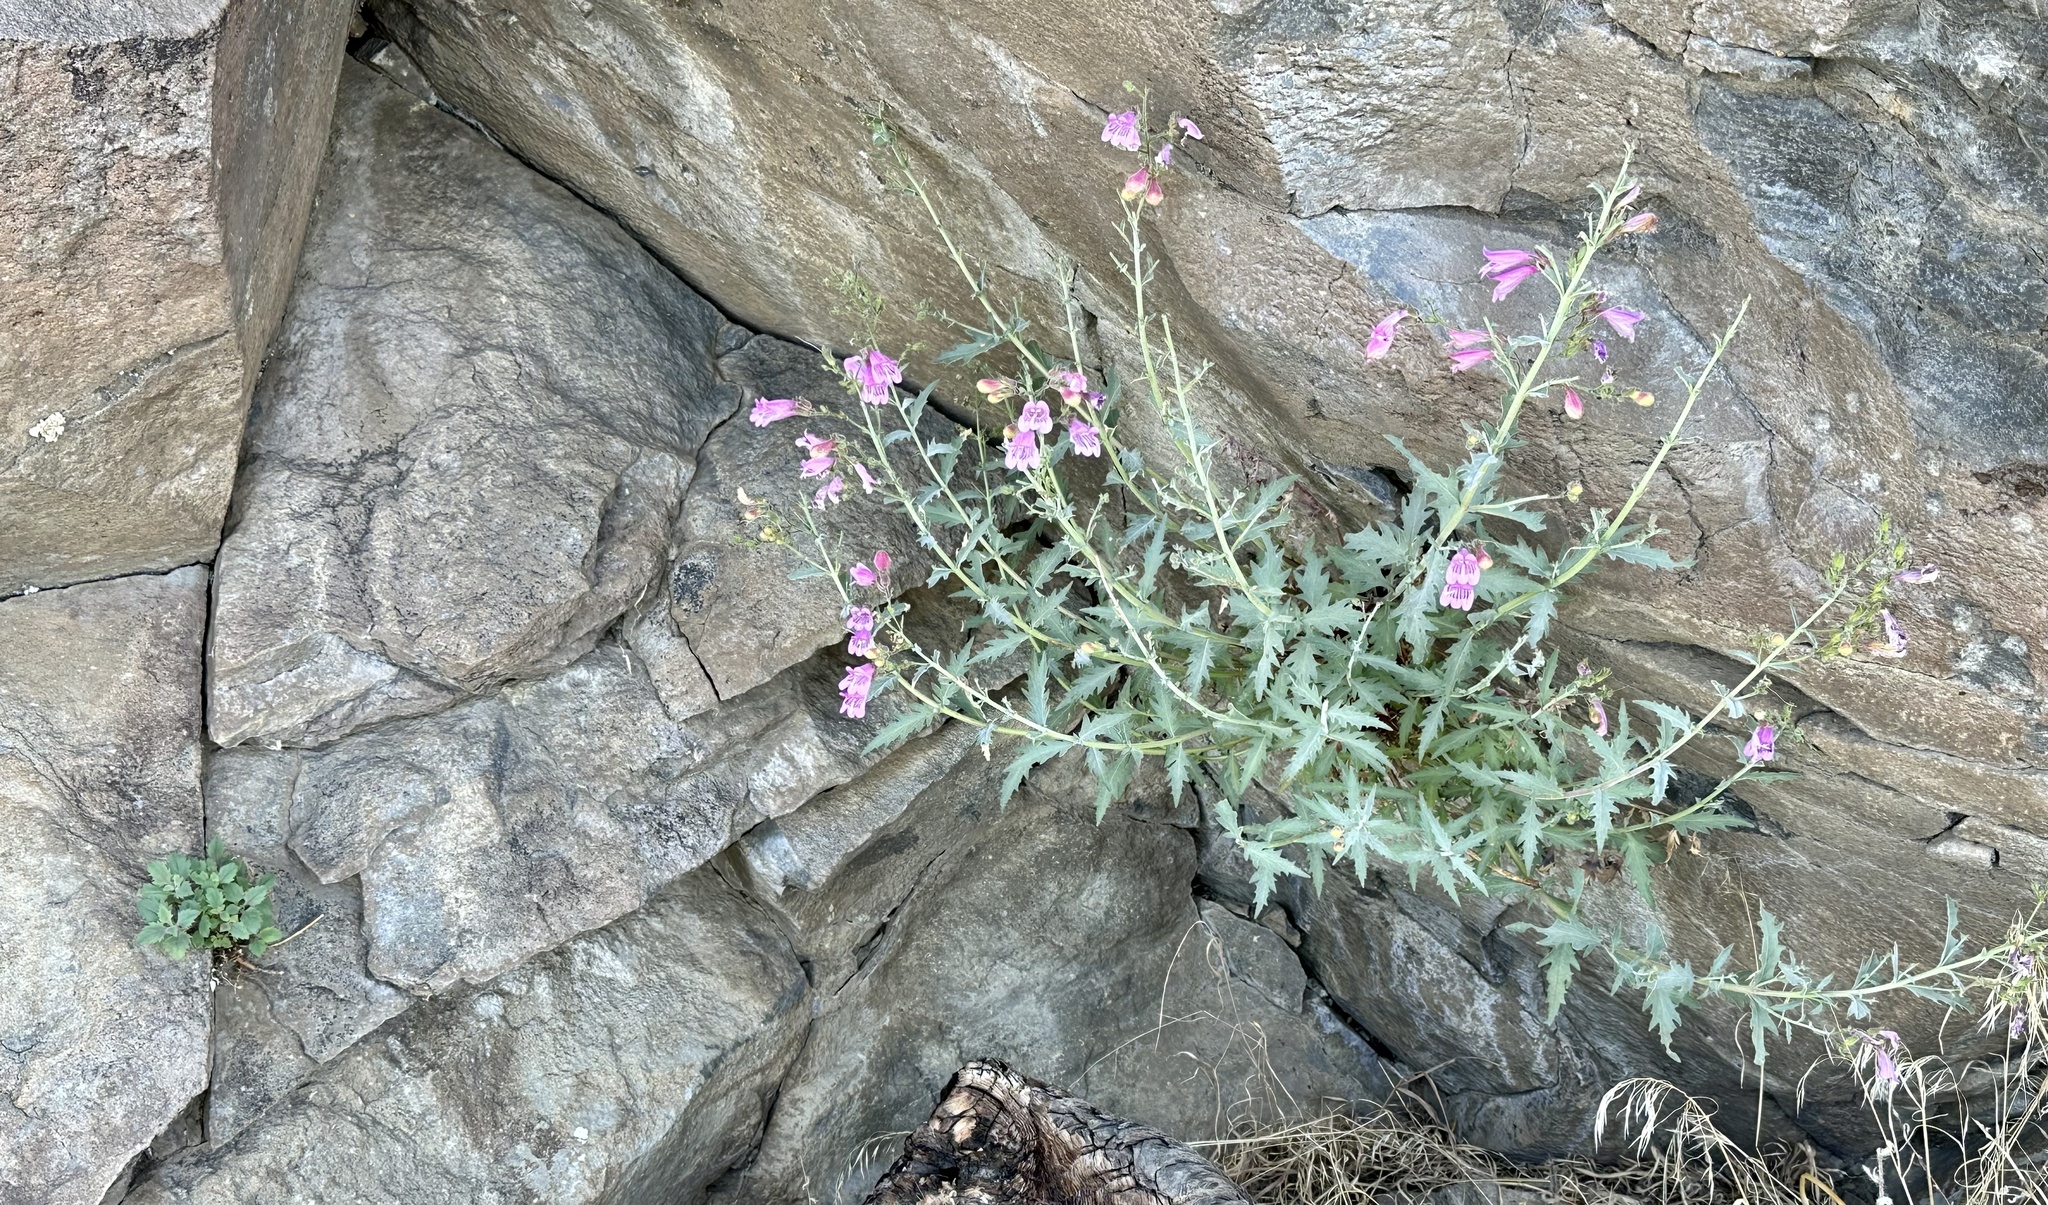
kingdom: Plantae
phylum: Tracheophyta
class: Magnoliopsida
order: Lamiales
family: Plantaginaceae
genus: Penstemon
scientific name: Penstemon richardsonii
